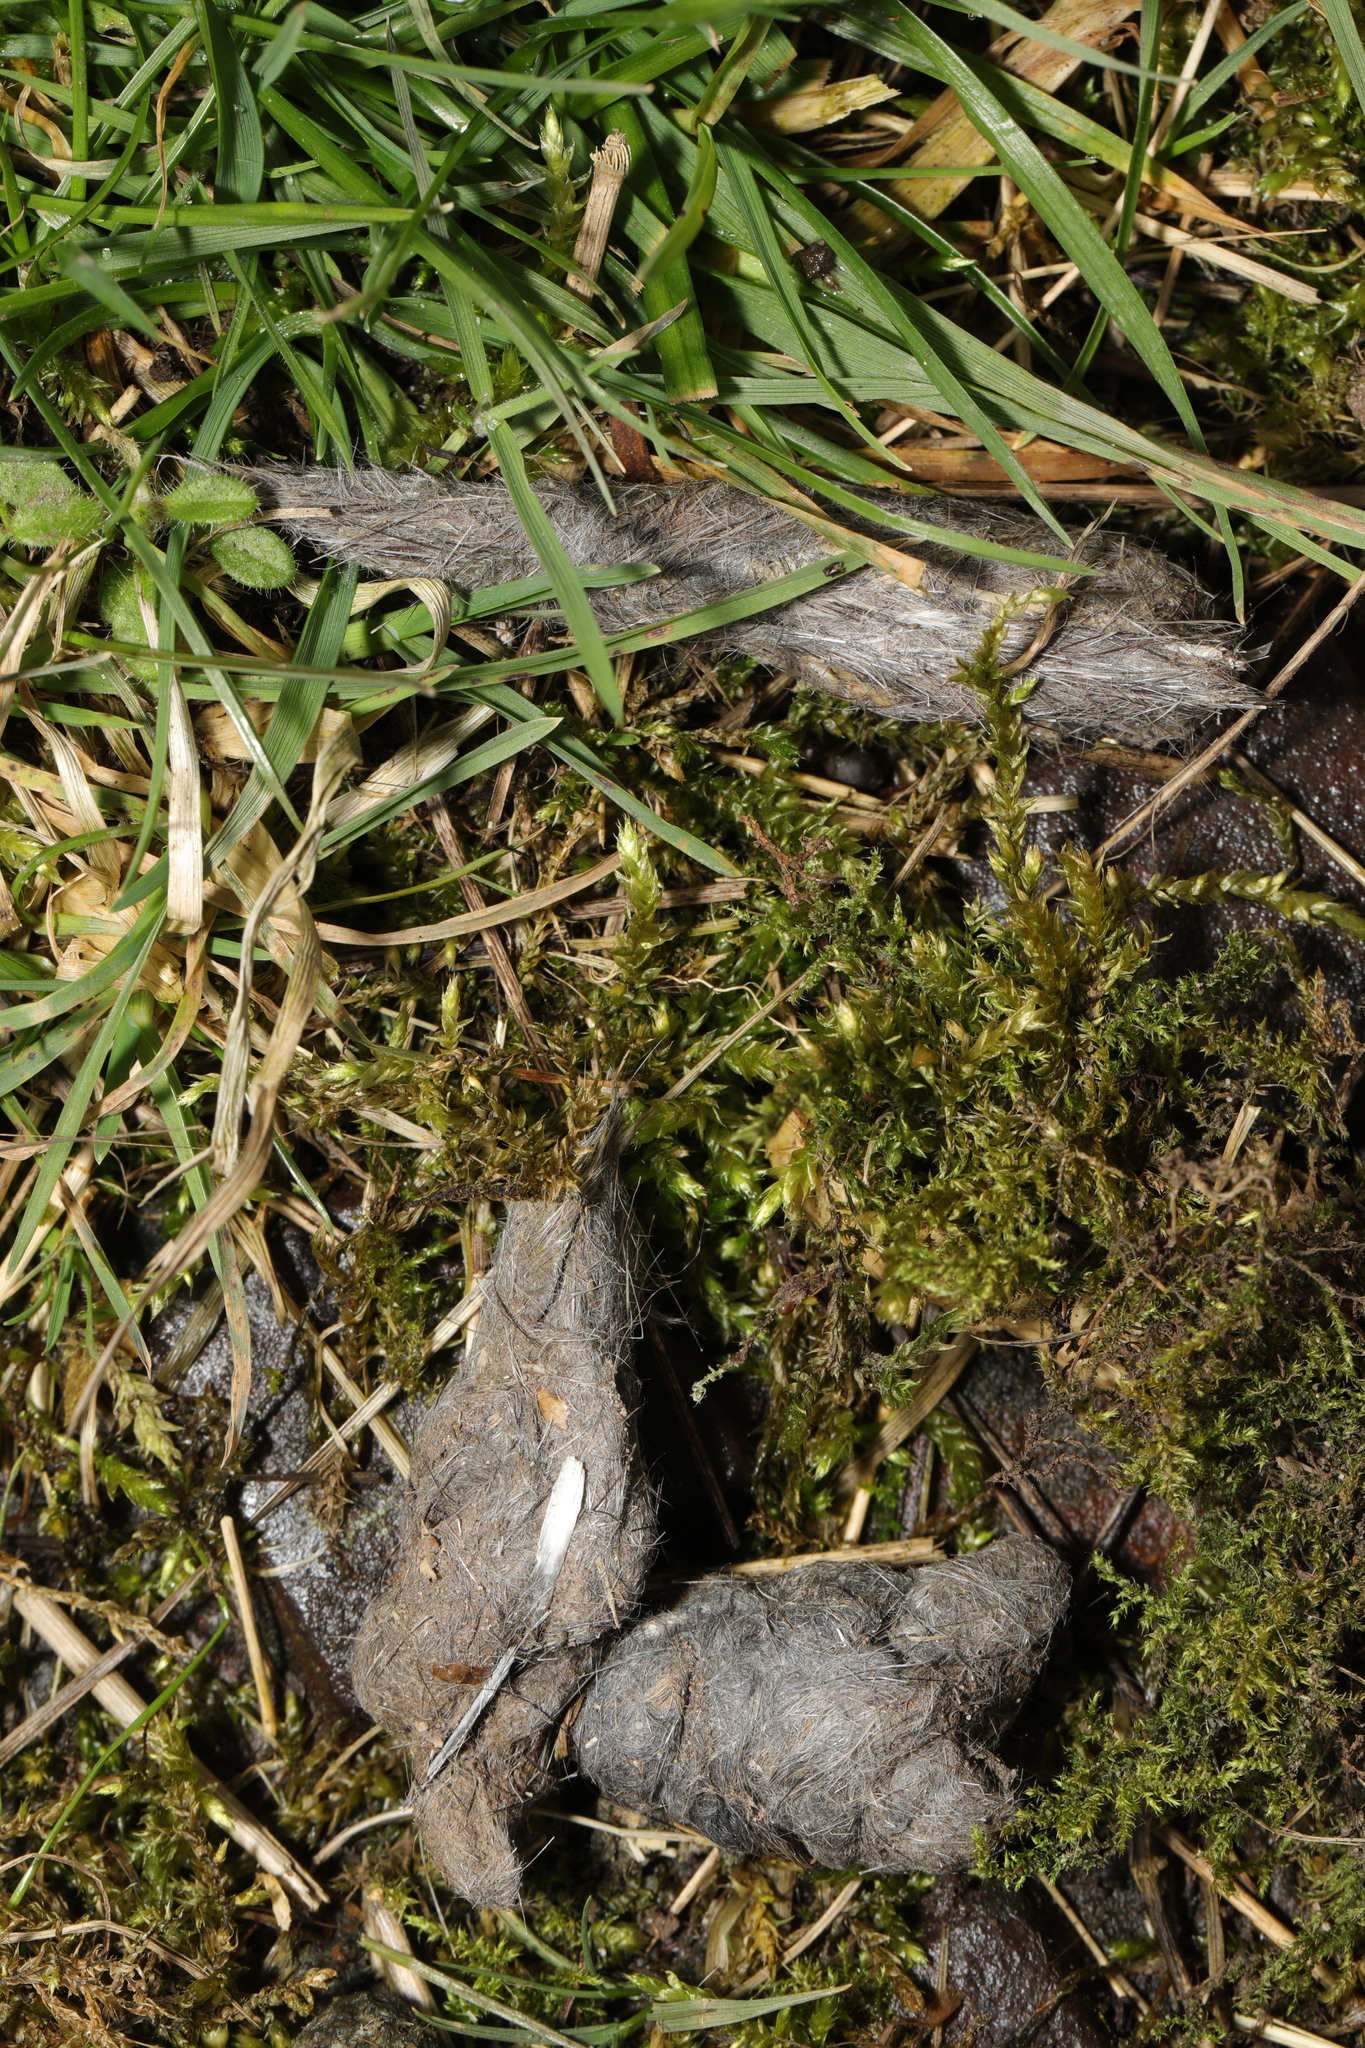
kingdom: Animalia
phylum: Chordata
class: Mammalia
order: Carnivora
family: Canidae
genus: Vulpes
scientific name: Vulpes vulpes
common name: Red fox
